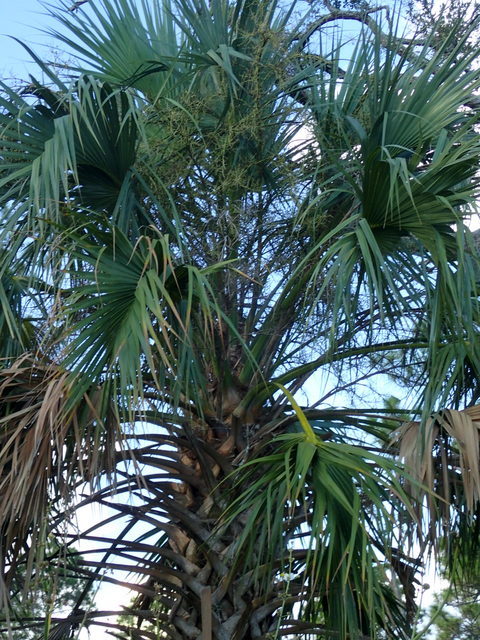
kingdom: Plantae
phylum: Tracheophyta
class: Liliopsida
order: Arecales
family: Arecaceae
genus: Sabal
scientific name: Sabal palmetto
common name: Blue palmetto
